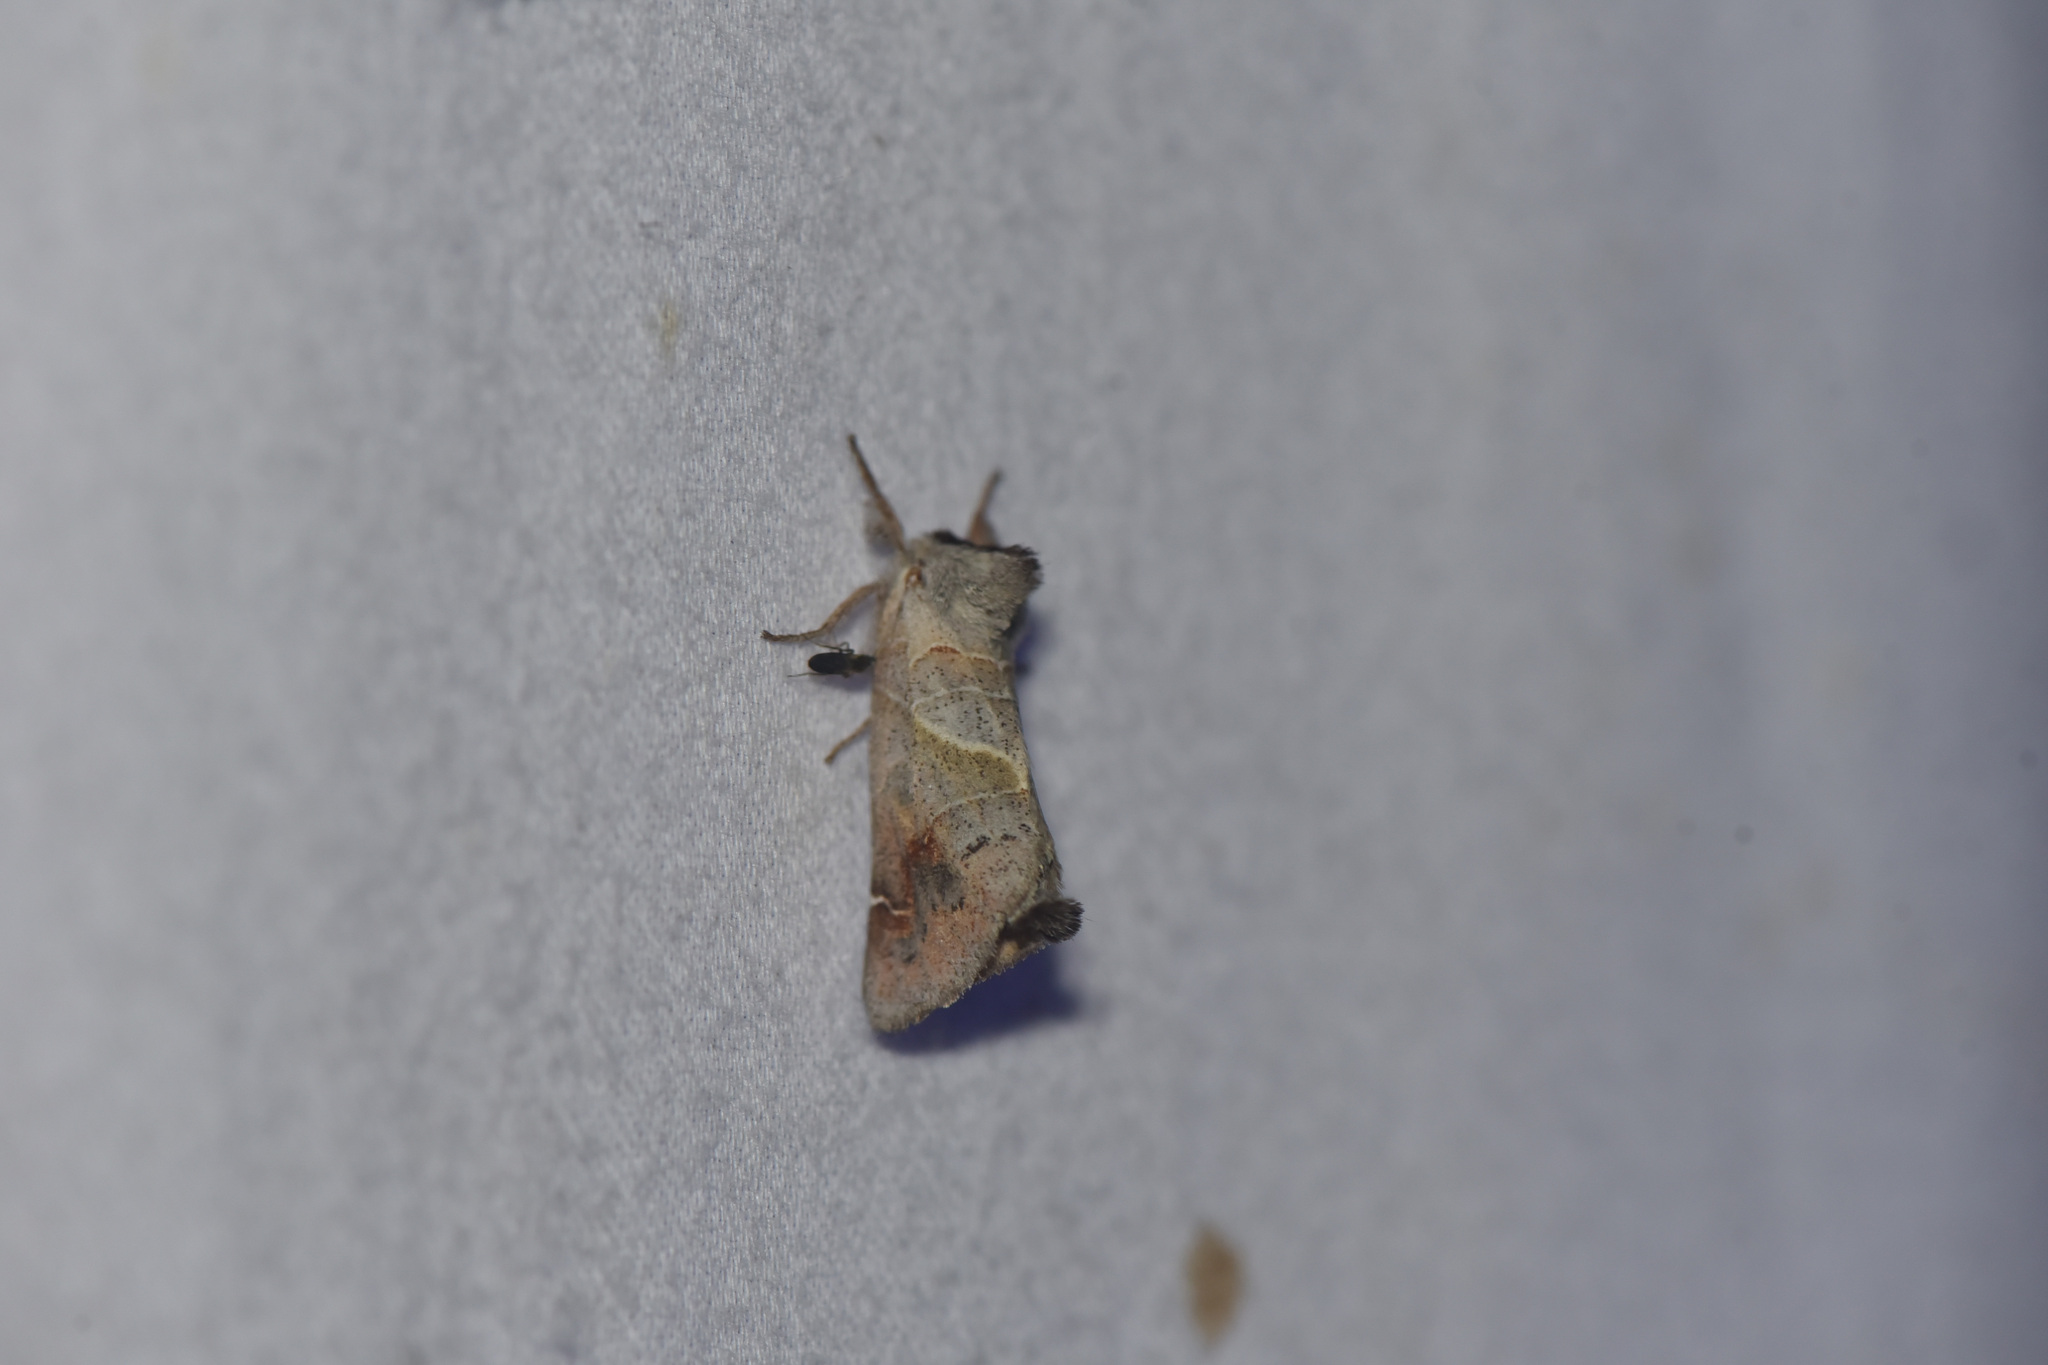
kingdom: Animalia
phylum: Arthropoda
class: Insecta
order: Lepidoptera
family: Notodontidae
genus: Clostera
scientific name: Clostera apicalis
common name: Apical prominent
